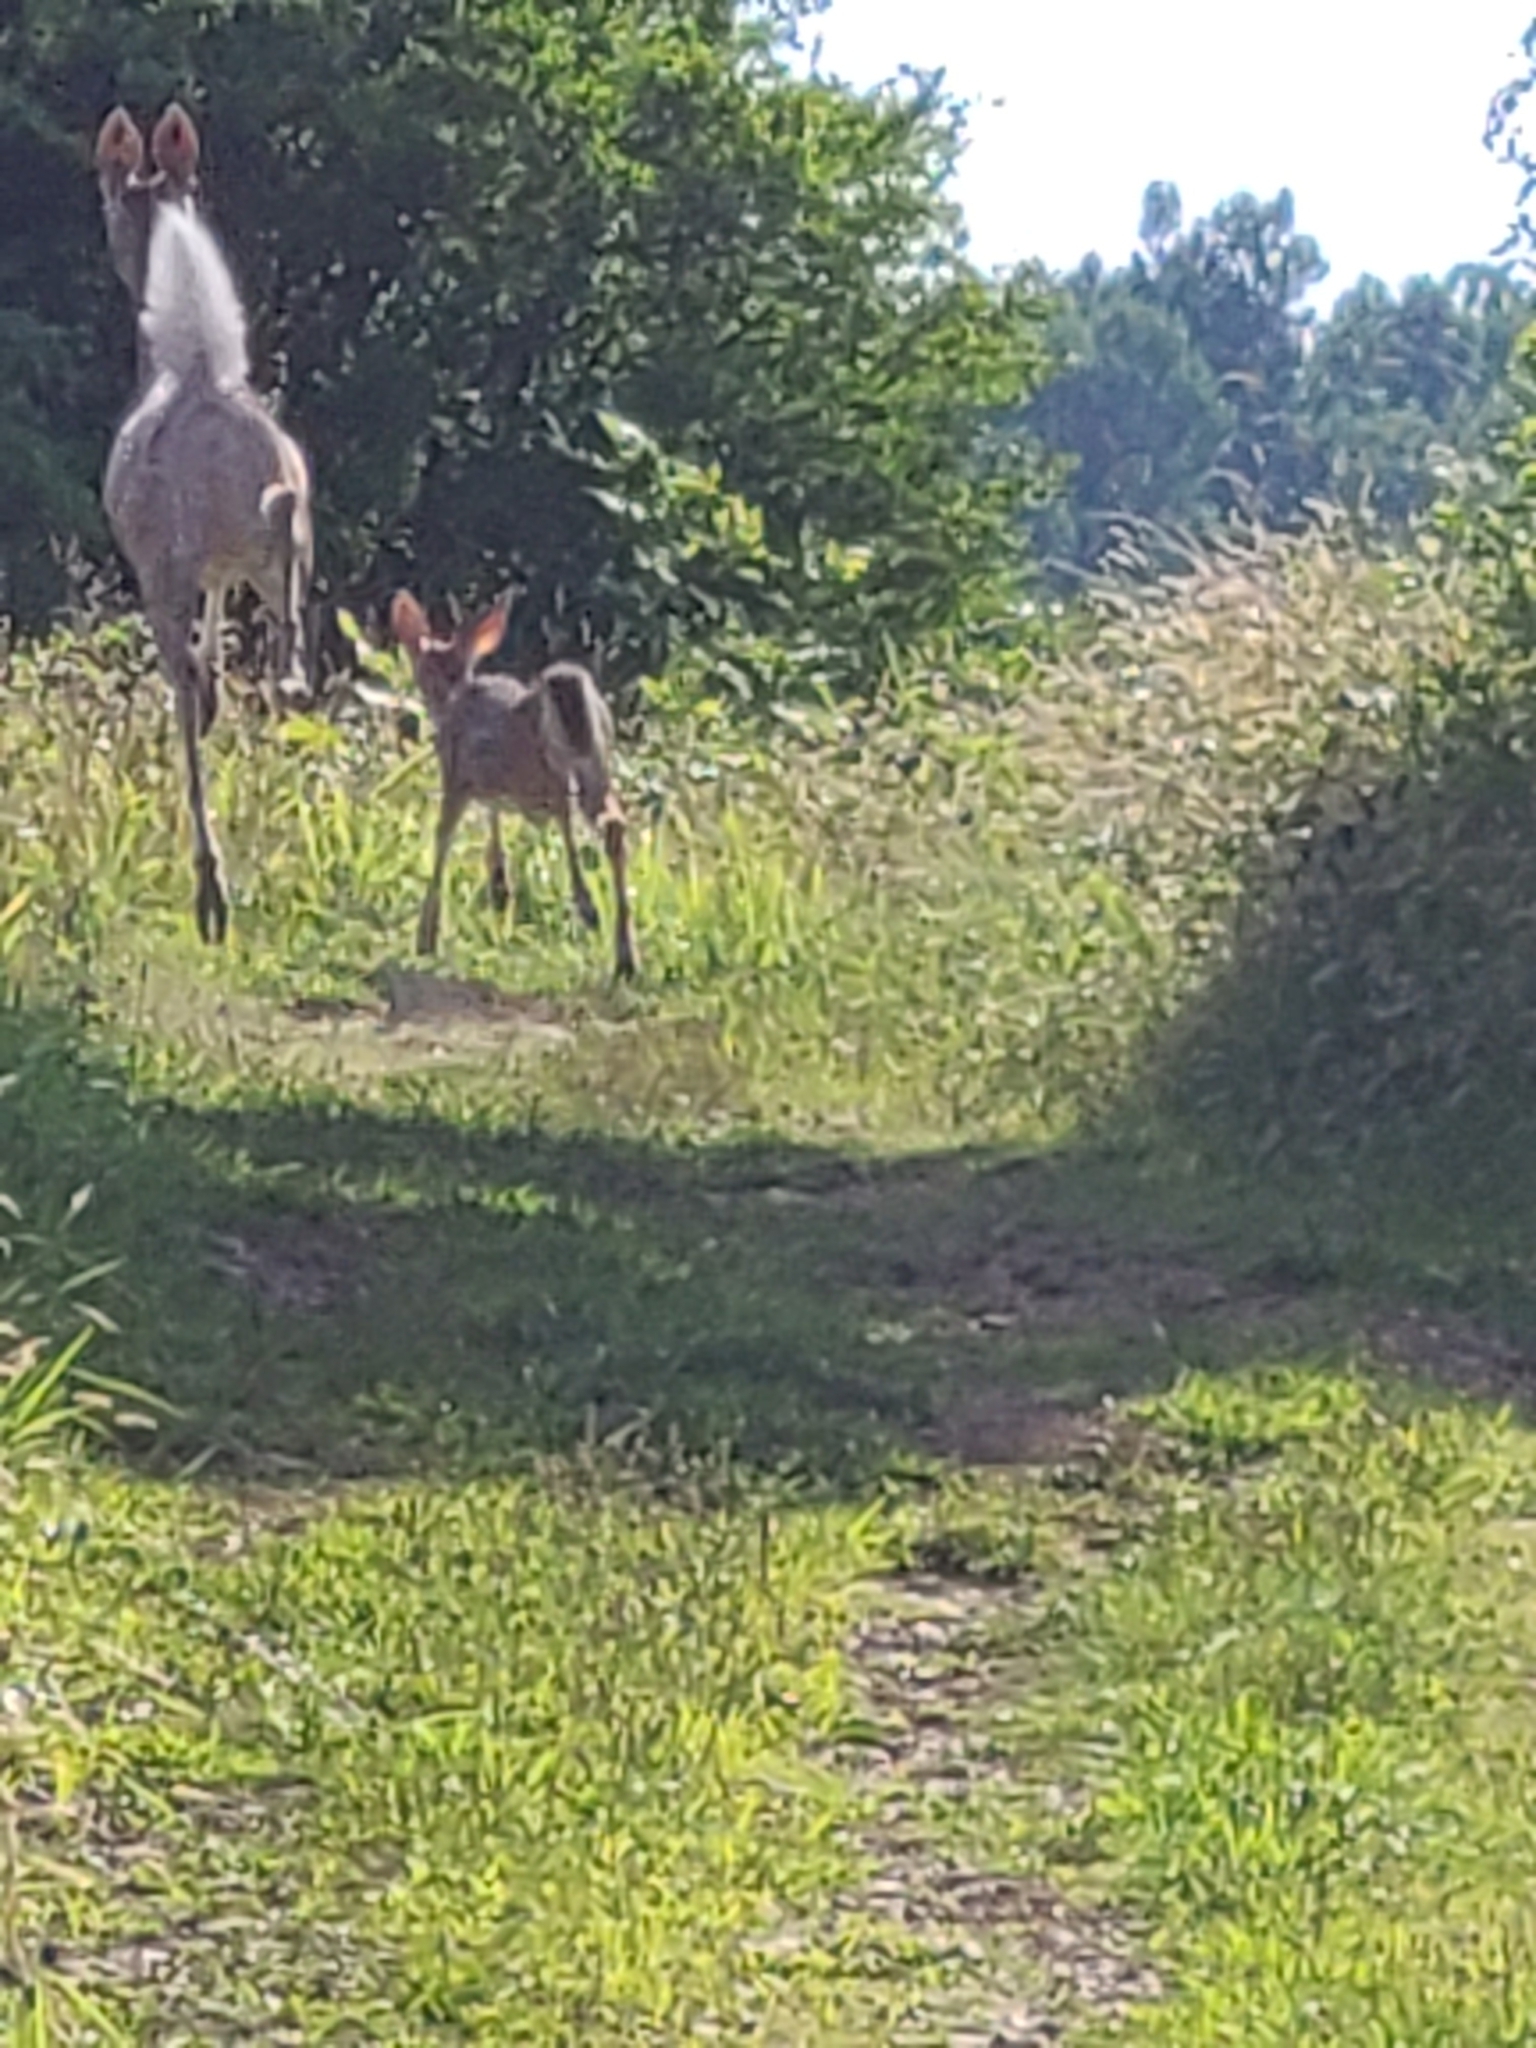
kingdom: Animalia
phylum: Chordata
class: Mammalia
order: Artiodactyla
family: Cervidae
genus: Odocoileus
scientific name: Odocoileus virginianus
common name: White-tailed deer
